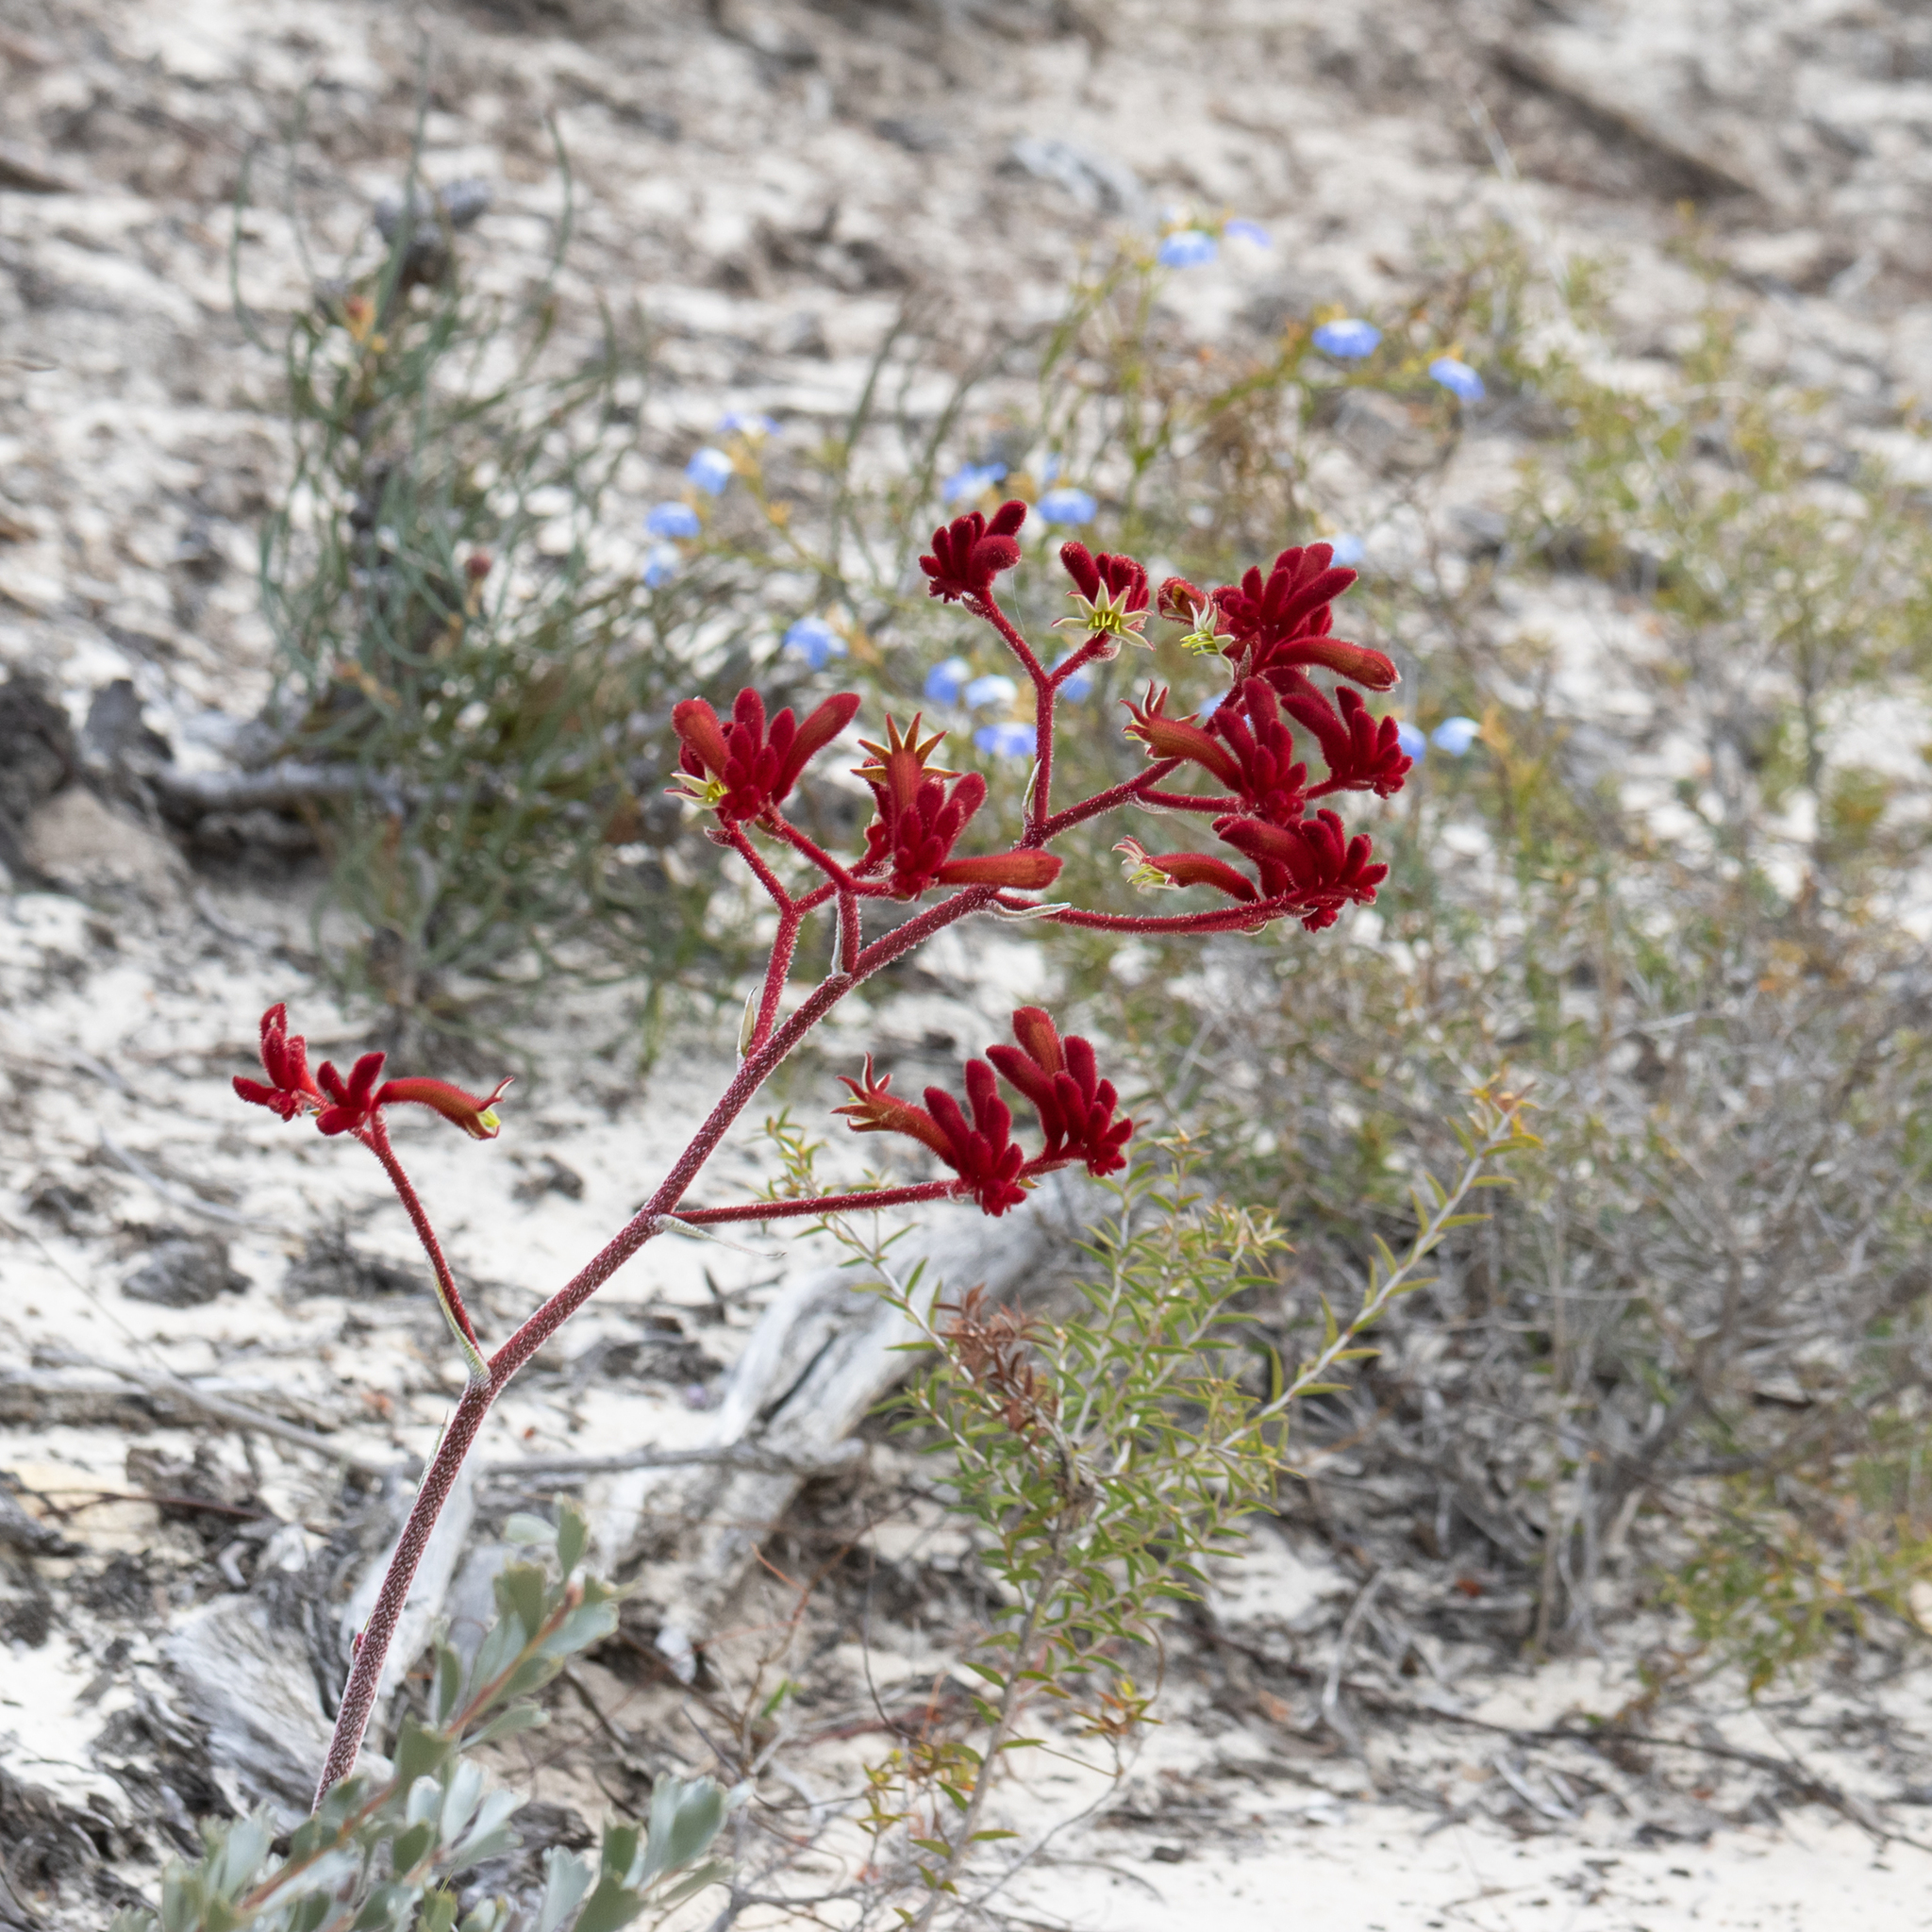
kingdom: Plantae
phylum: Tracheophyta
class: Liliopsida
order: Commelinales
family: Haemodoraceae
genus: Anigozanthos
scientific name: Anigozanthos rufus
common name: Red kangaroo-paw
